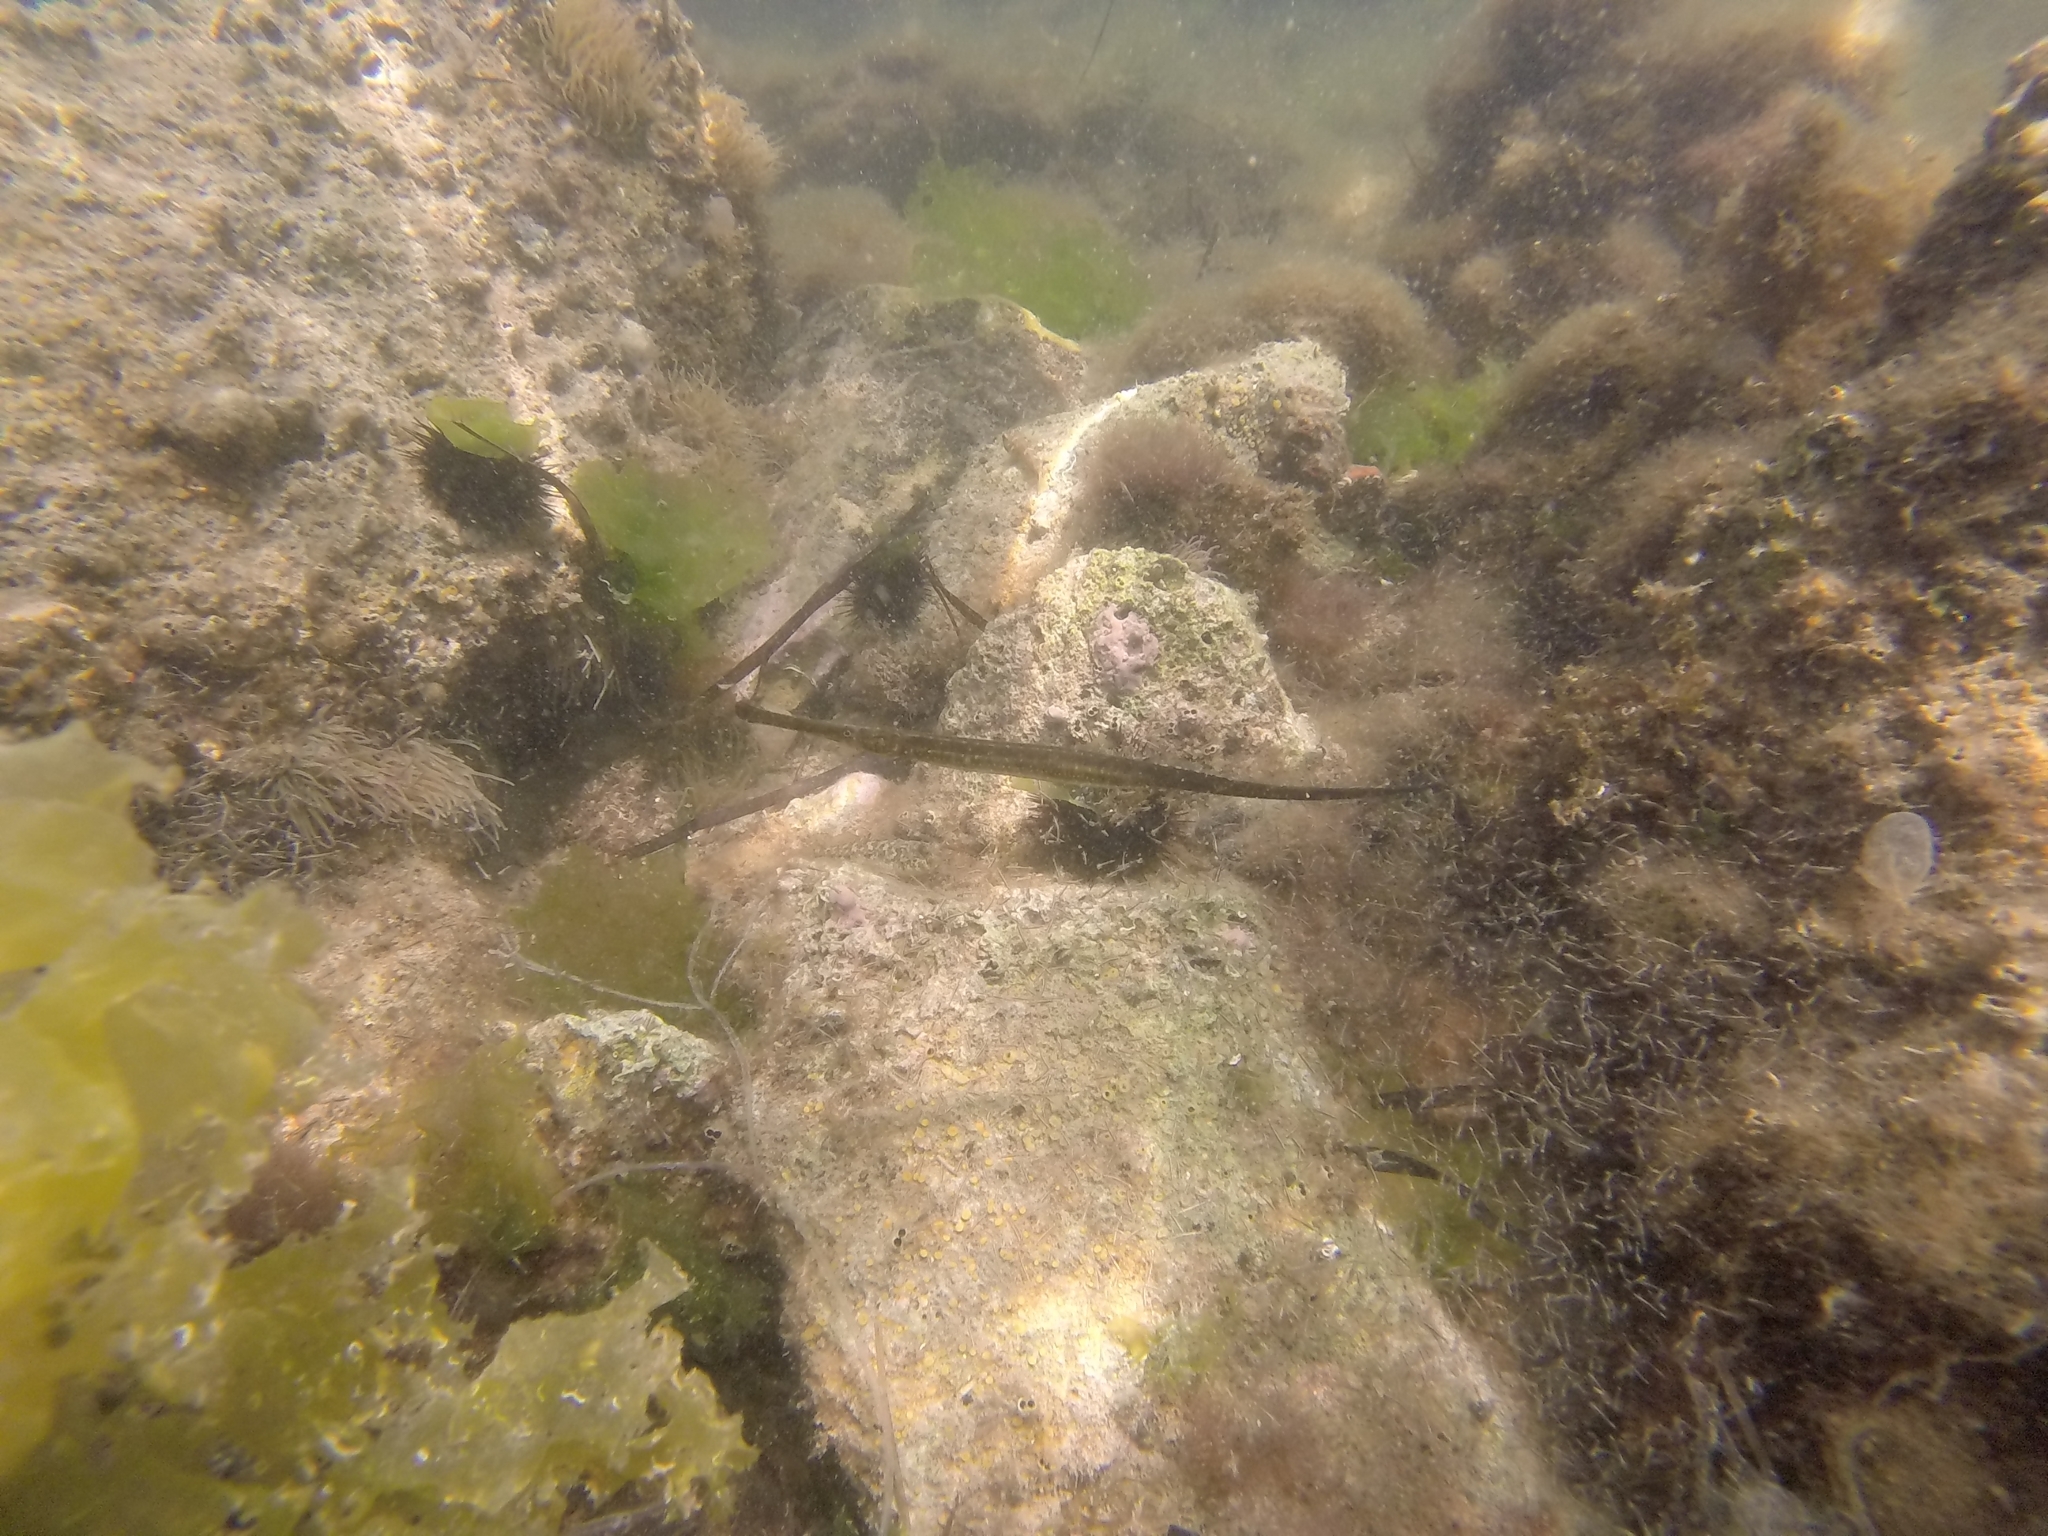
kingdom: Animalia
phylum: Chordata
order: Syngnathiformes
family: Syngnathidae
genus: Syngnathus
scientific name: Syngnathus typhle
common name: Deep-snouted pipefish
